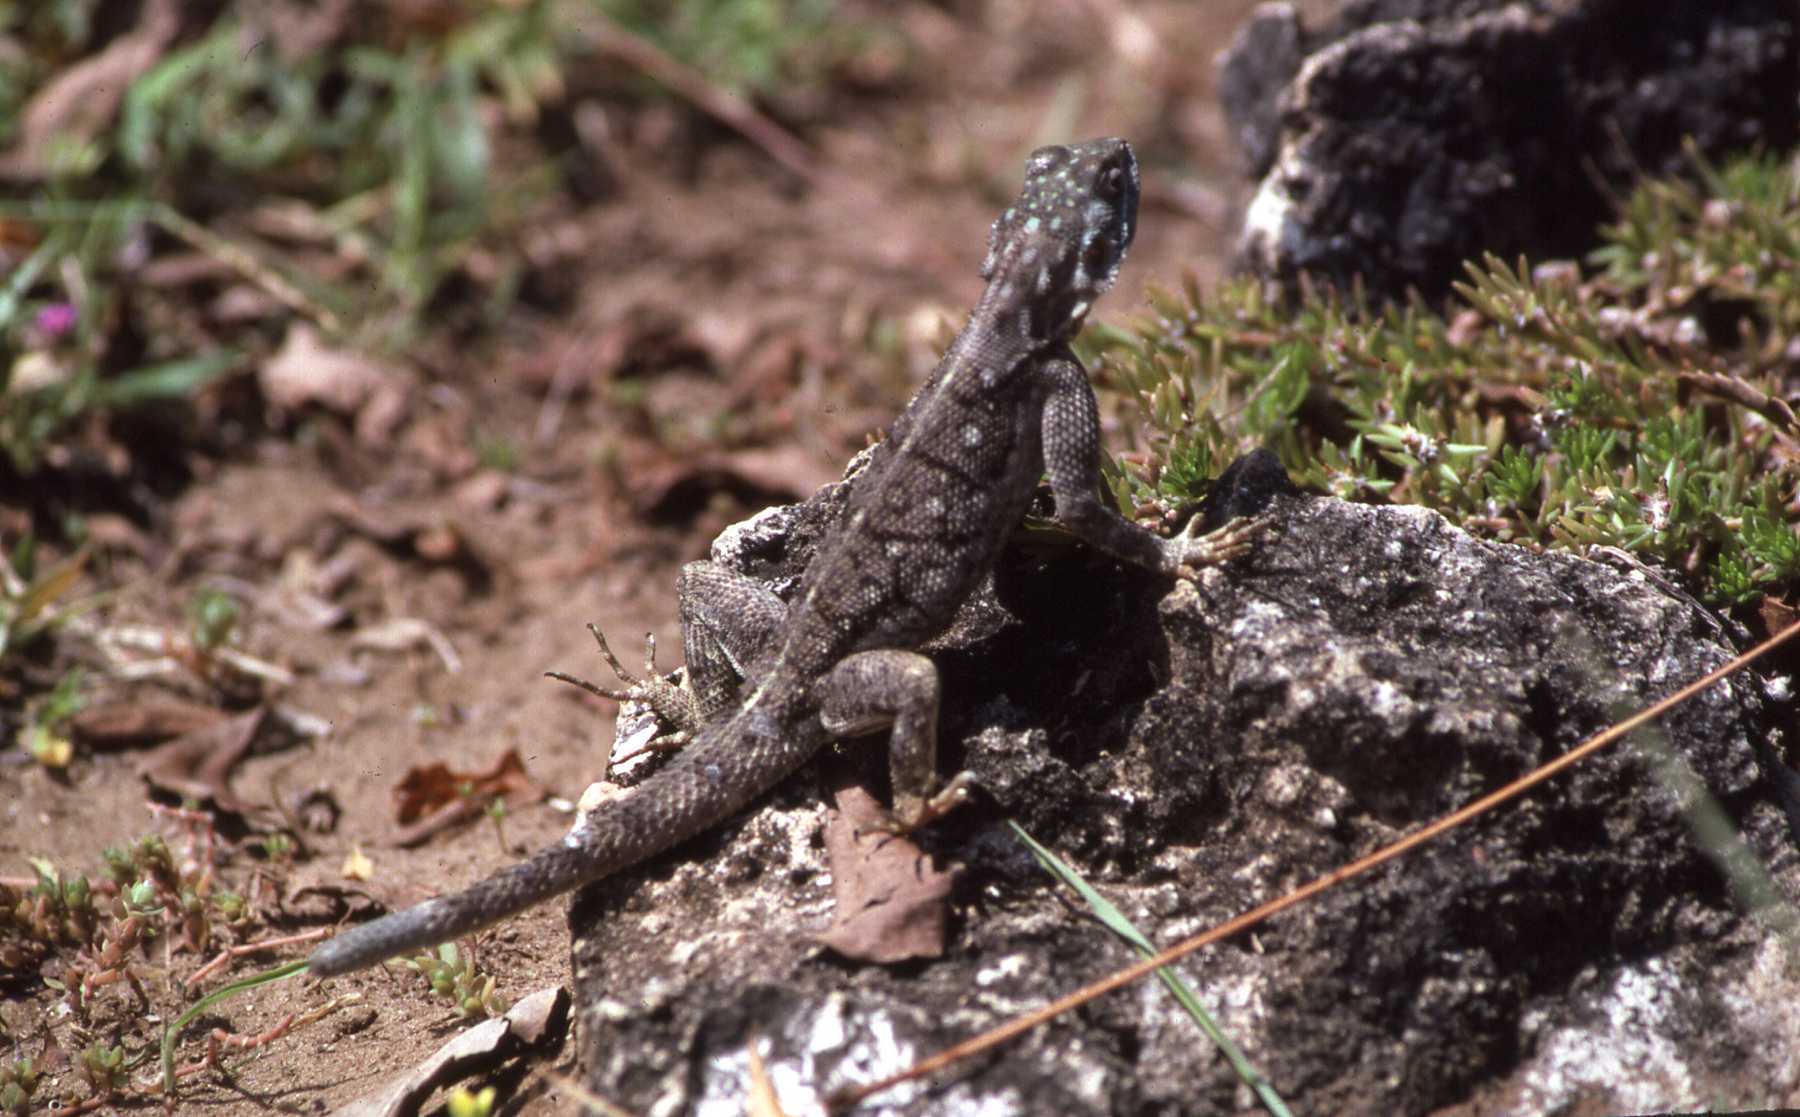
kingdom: Animalia
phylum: Chordata
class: Squamata
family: Agamidae
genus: Agama
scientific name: Agama lionotus
